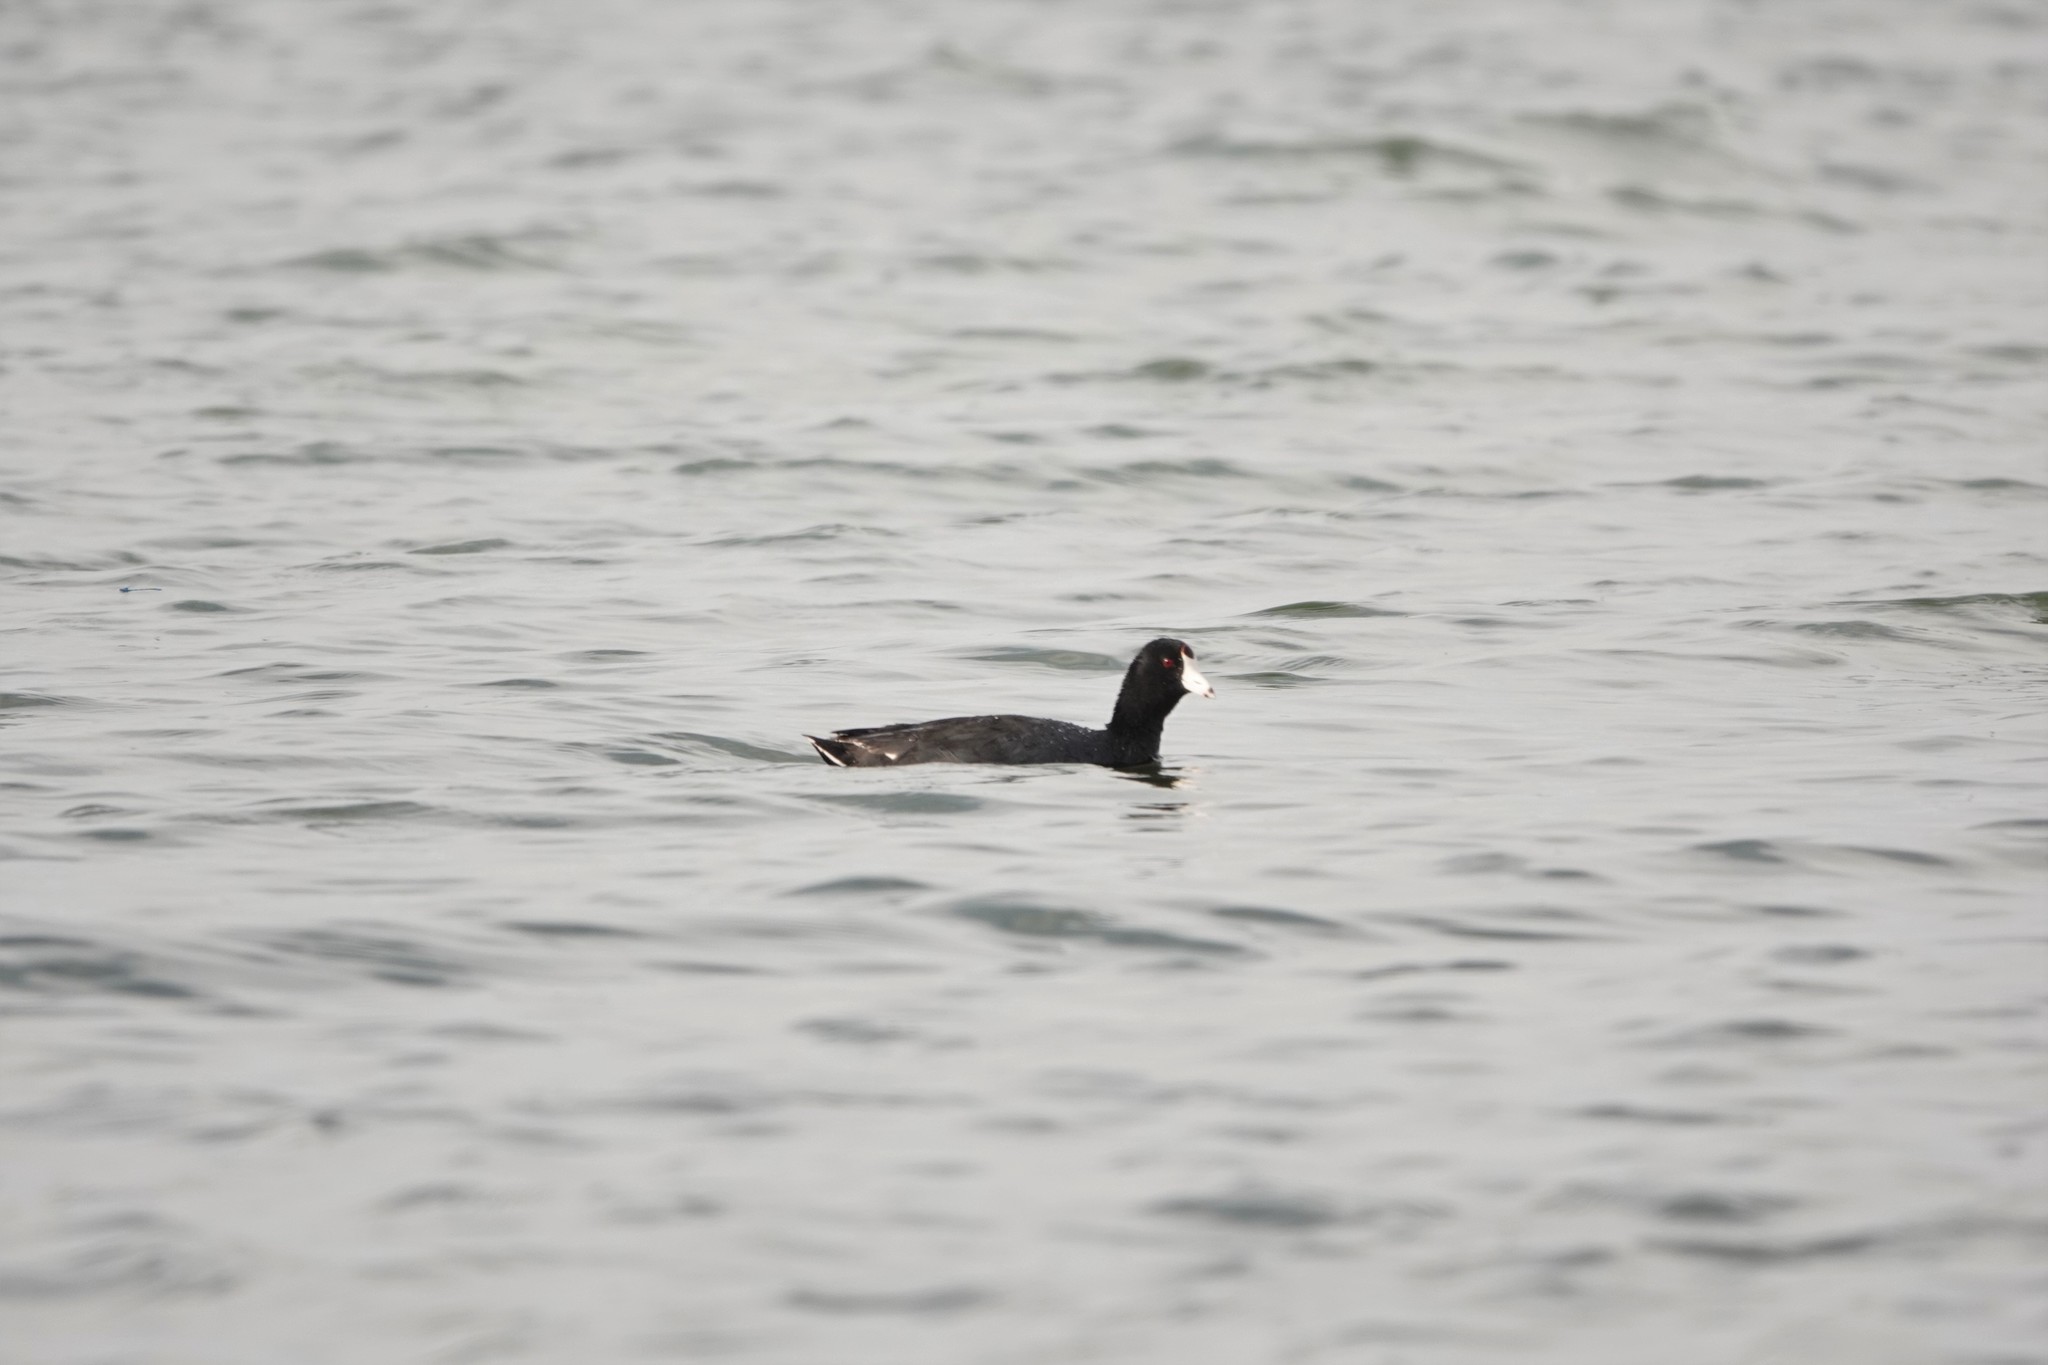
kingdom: Animalia
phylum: Chordata
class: Aves
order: Gruiformes
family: Rallidae
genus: Fulica
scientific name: Fulica americana
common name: American coot
